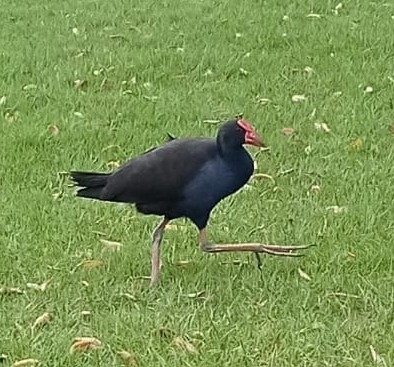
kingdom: Animalia
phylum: Chordata
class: Aves
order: Gruiformes
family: Rallidae
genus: Porphyrio
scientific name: Porphyrio melanotus
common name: Australasian swamphen
